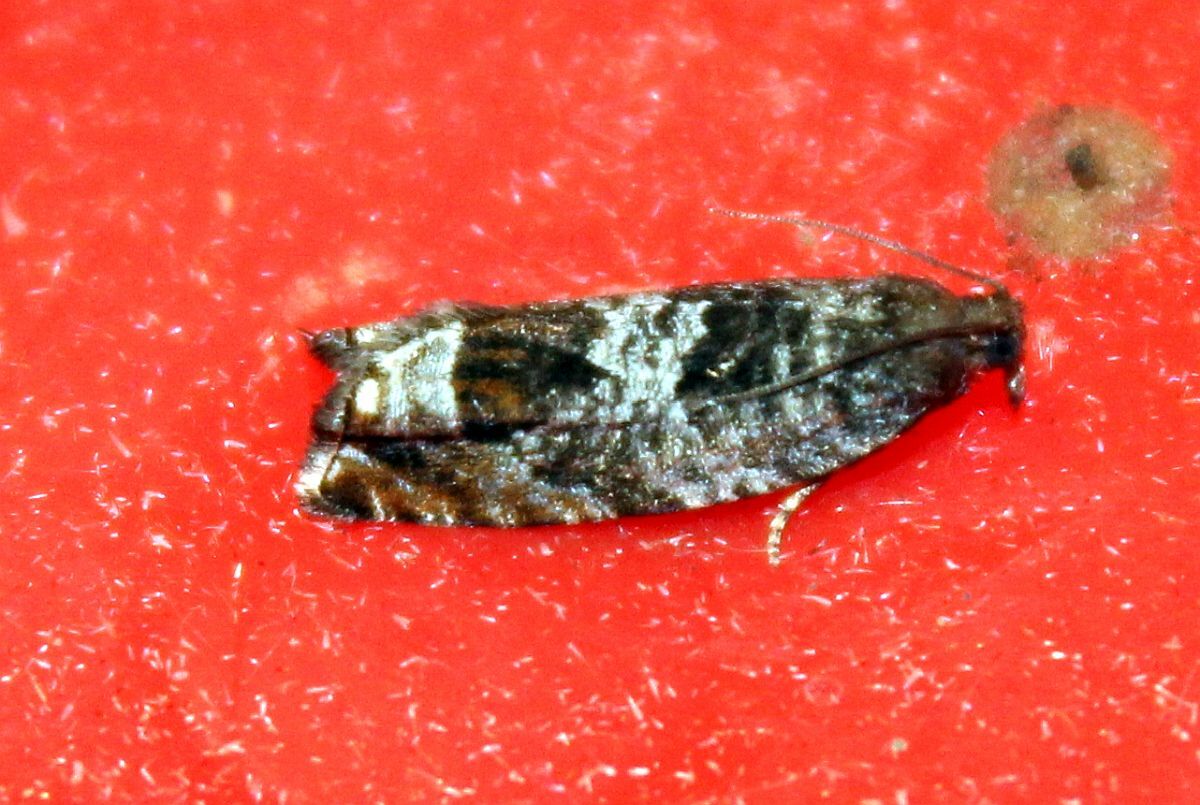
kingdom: Animalia
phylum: Arthropoda
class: Insecta
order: Lepidoptera
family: Tortricidae
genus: Ancylis
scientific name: Ancylis achatana
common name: Triangle-marked roller
